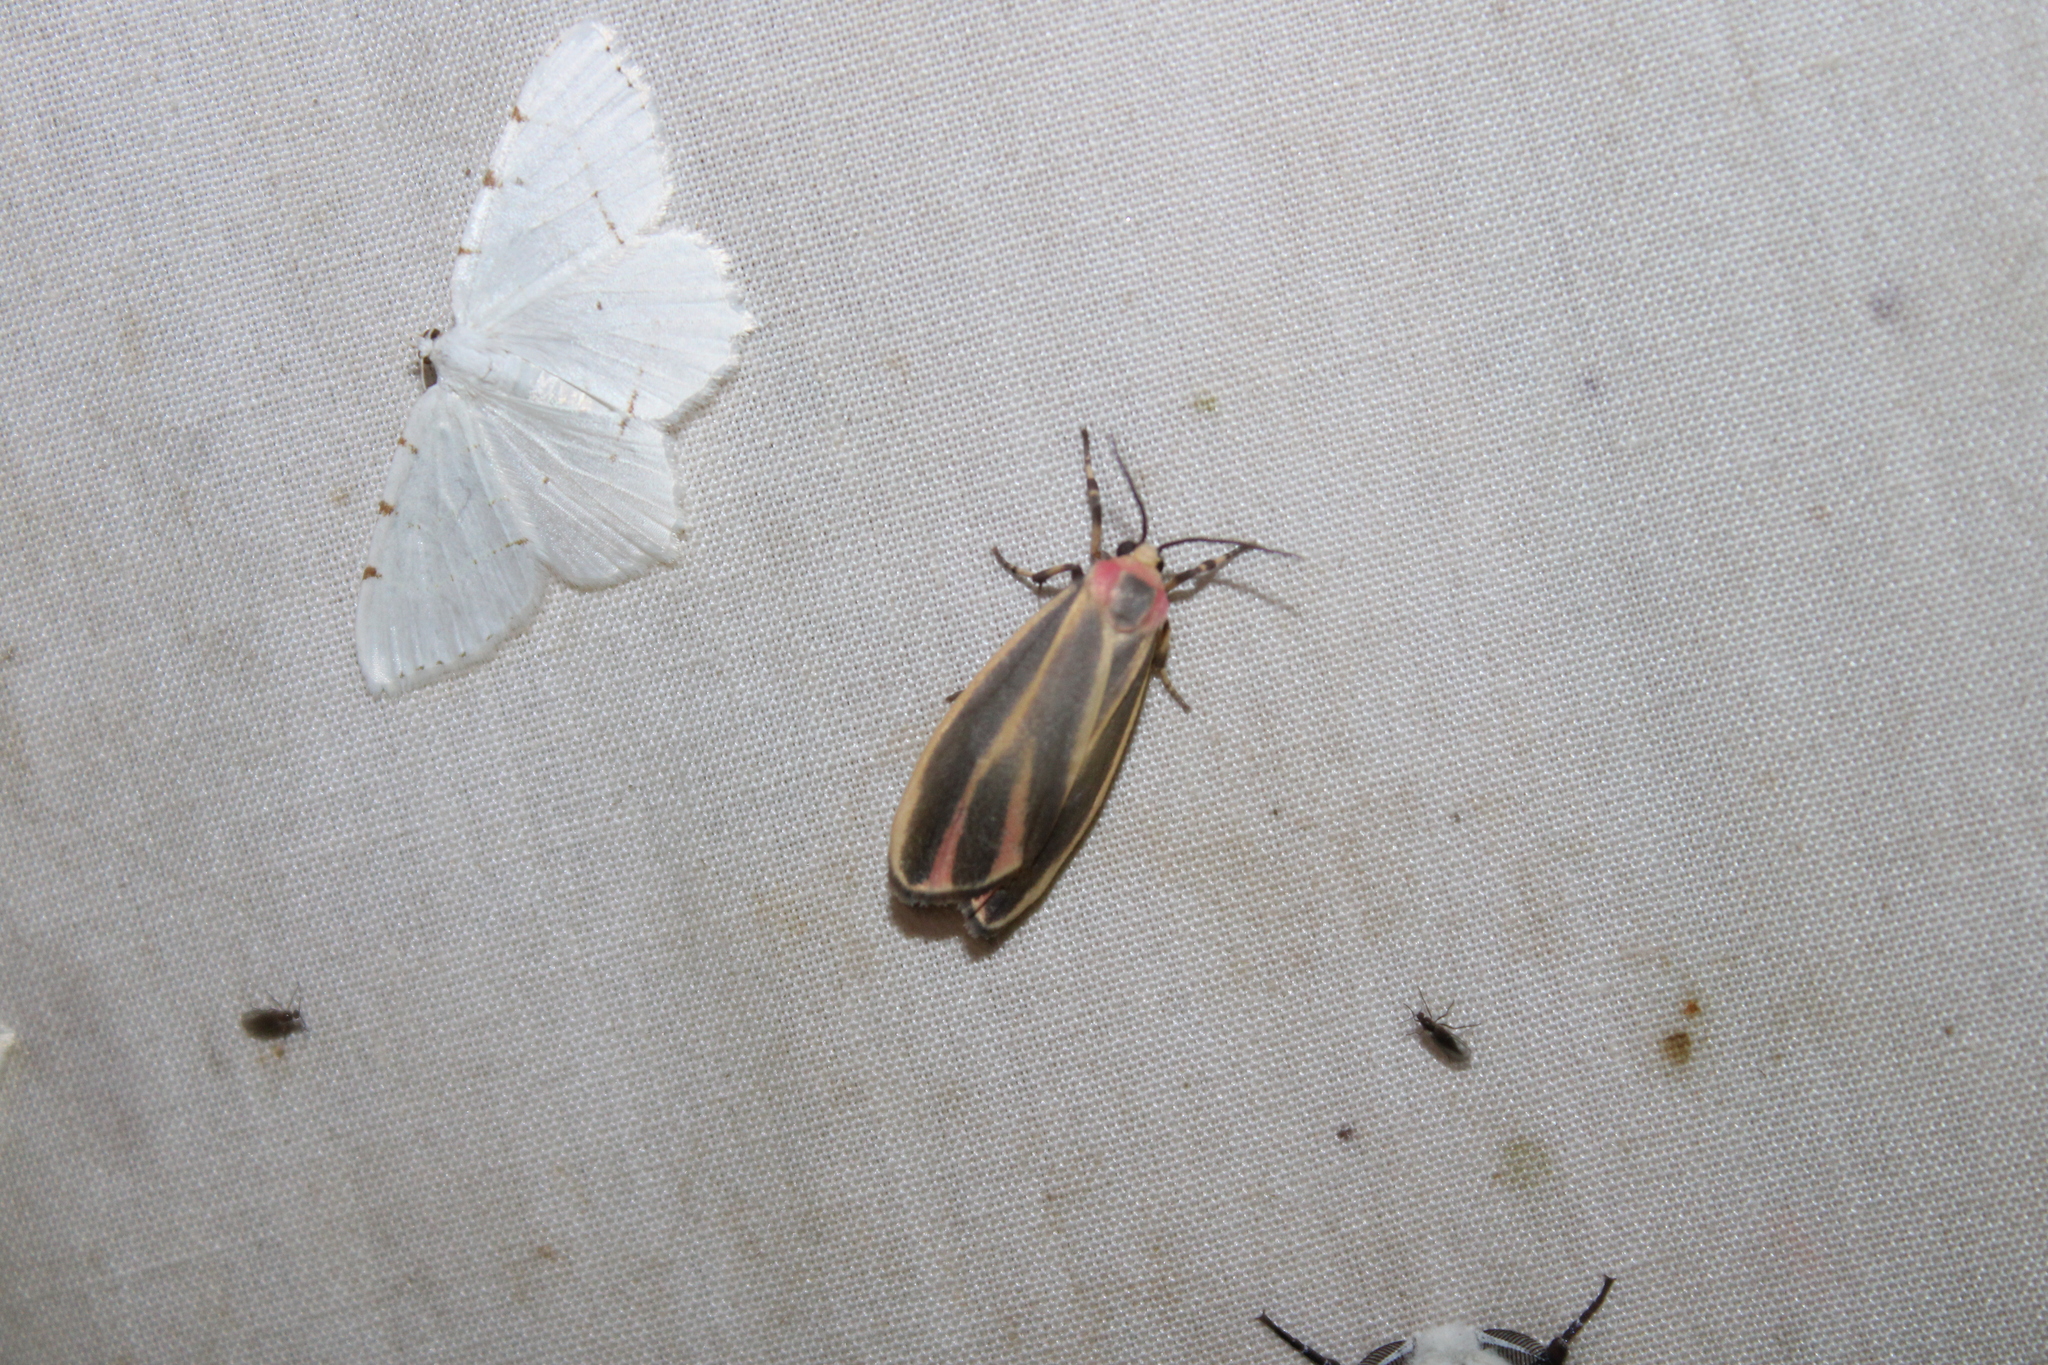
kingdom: Animalia
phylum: Arthropoda
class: Insecta
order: Lepidoptera
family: Erebidae
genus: Hypoprepia
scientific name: Hypoprepia fucosa
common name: Painted lichen moth
